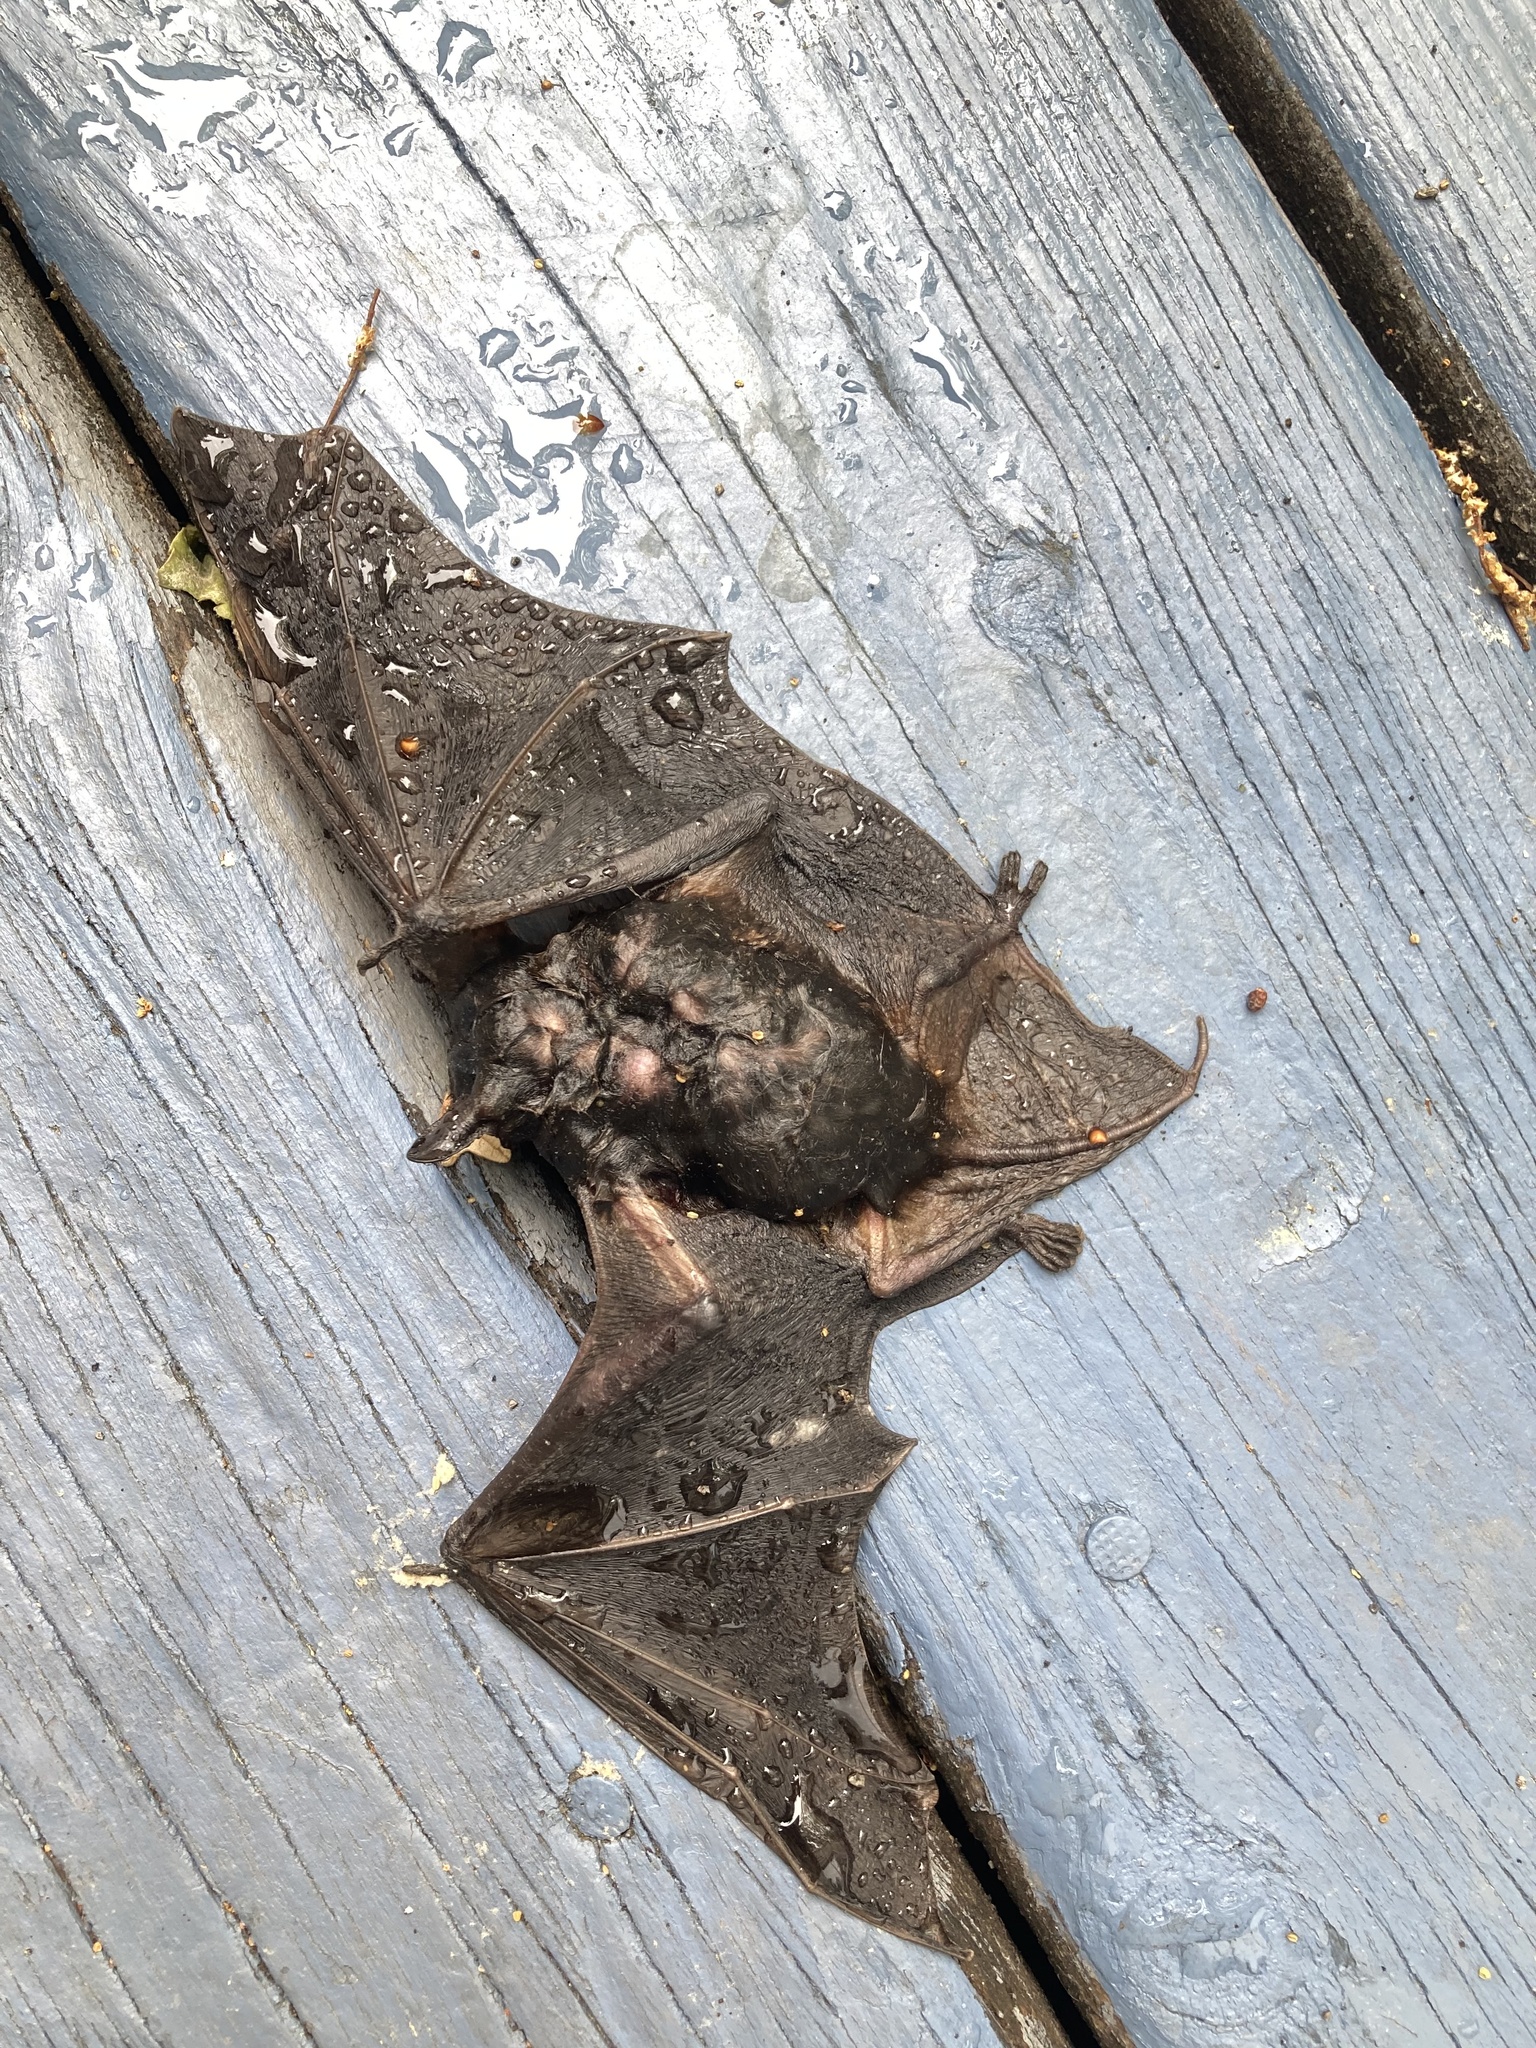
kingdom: Animalia
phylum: Chordata
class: Mammalia
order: Chiroptera
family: Vespertilionidae
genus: Eptesicus
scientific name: Eptesicus fuscus
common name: Big brown bat
